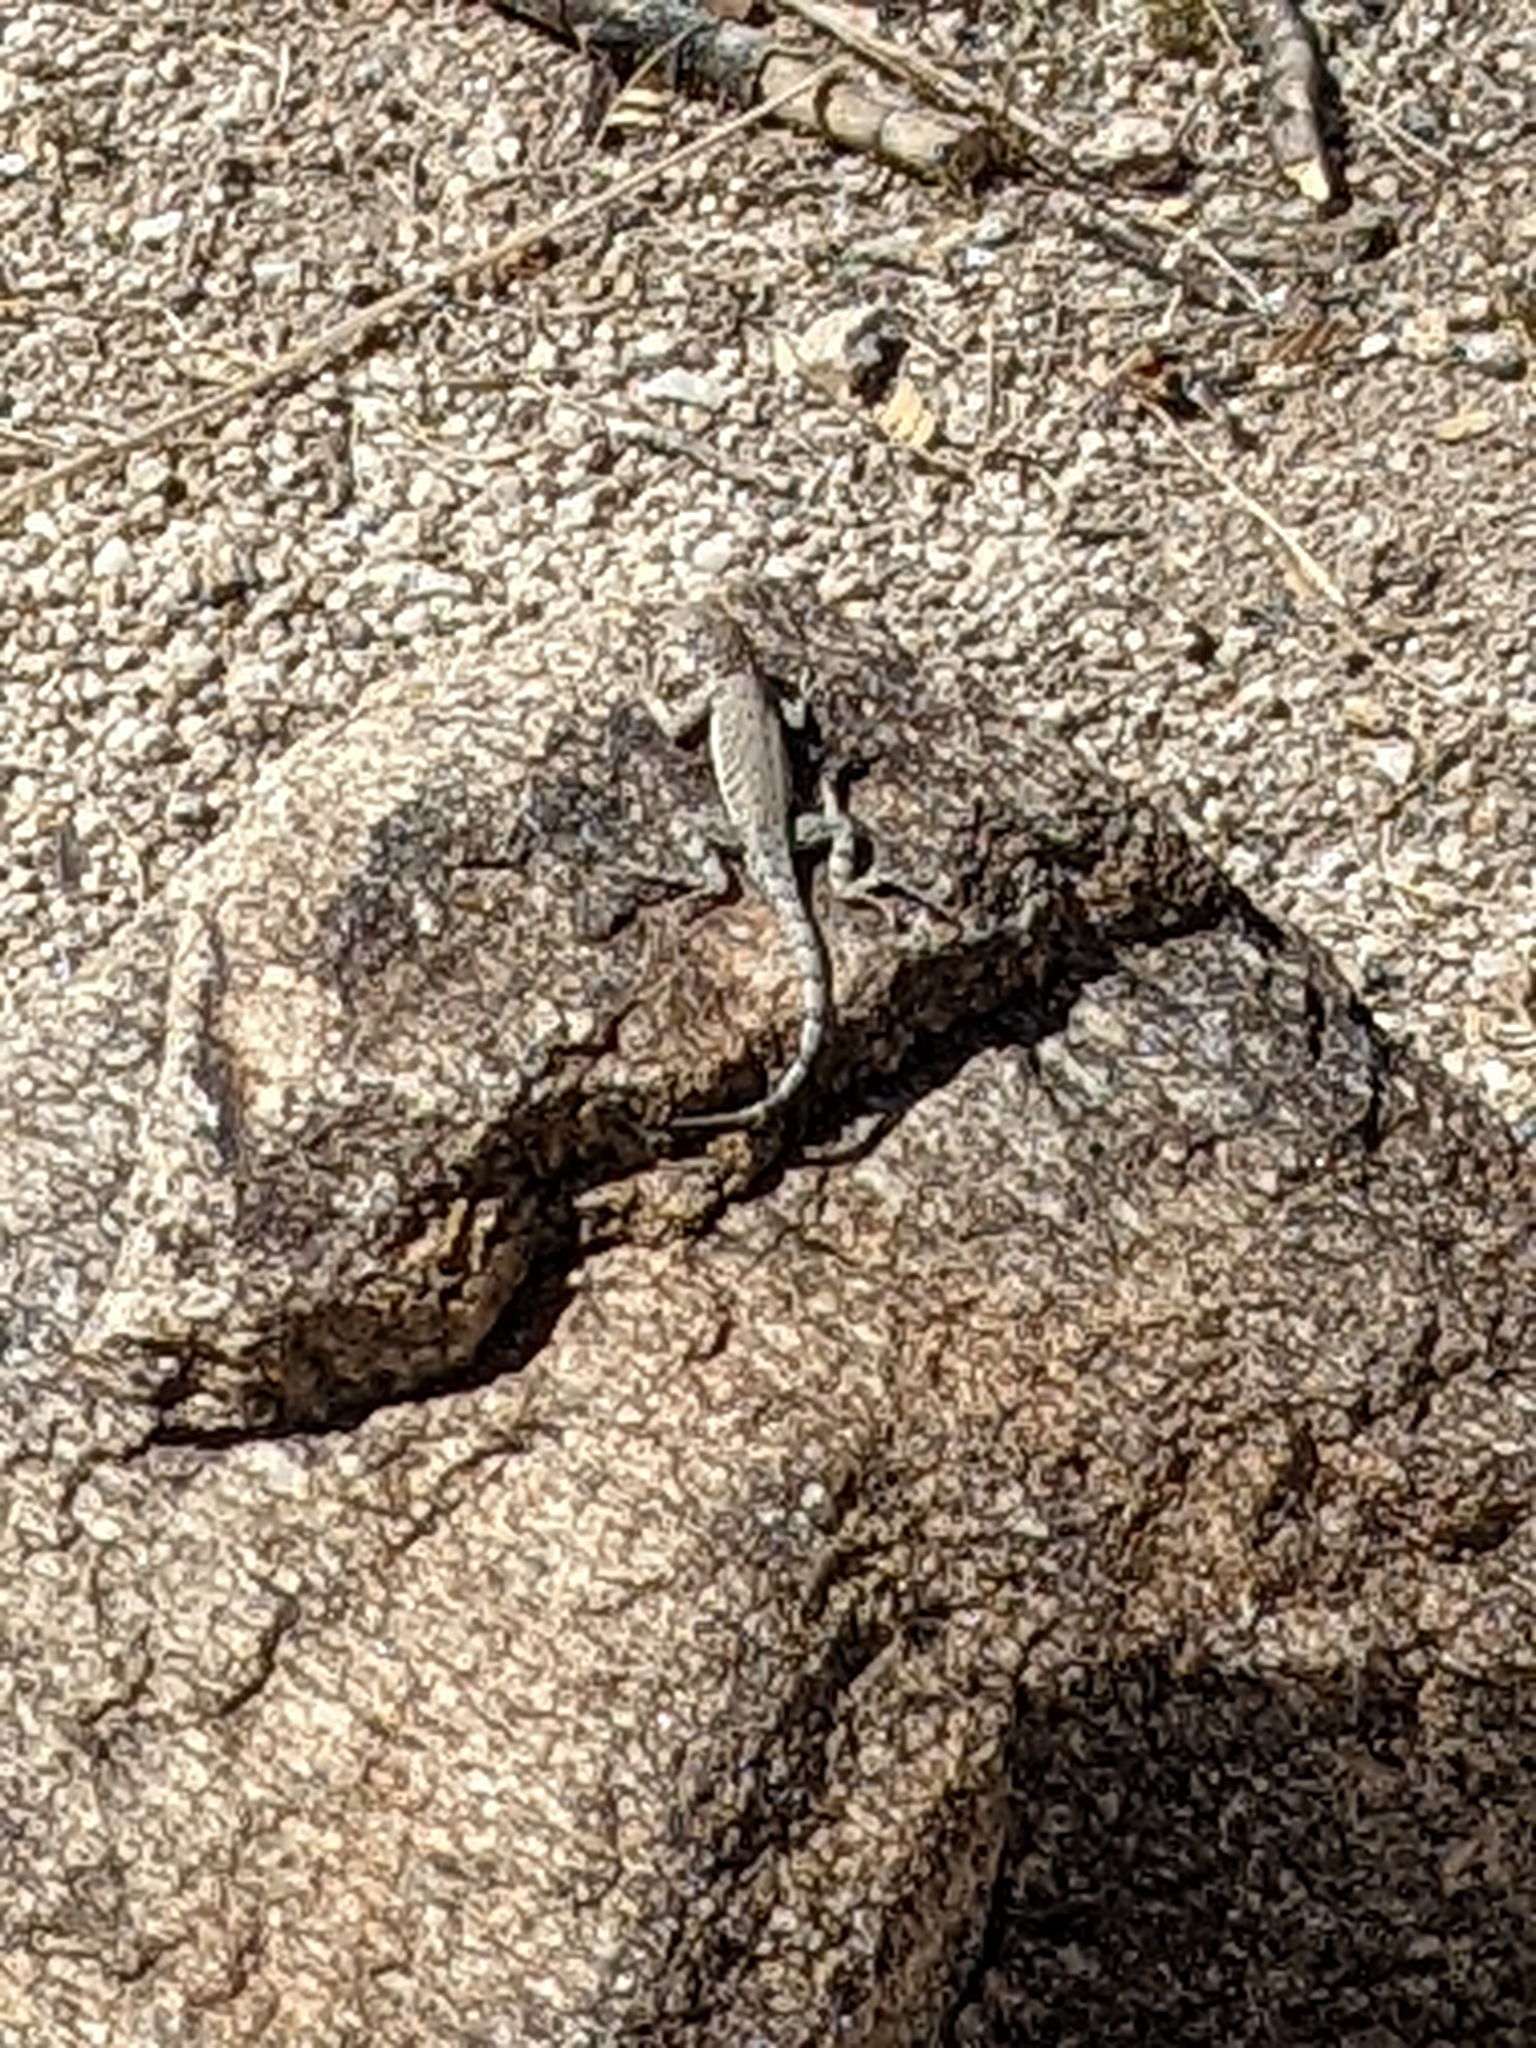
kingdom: Animalia
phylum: Chordata
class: Squamata
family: Phrynosomatidae
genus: Cophosaurus
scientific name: Cophosaurus texanus
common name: Greater earless lizard
